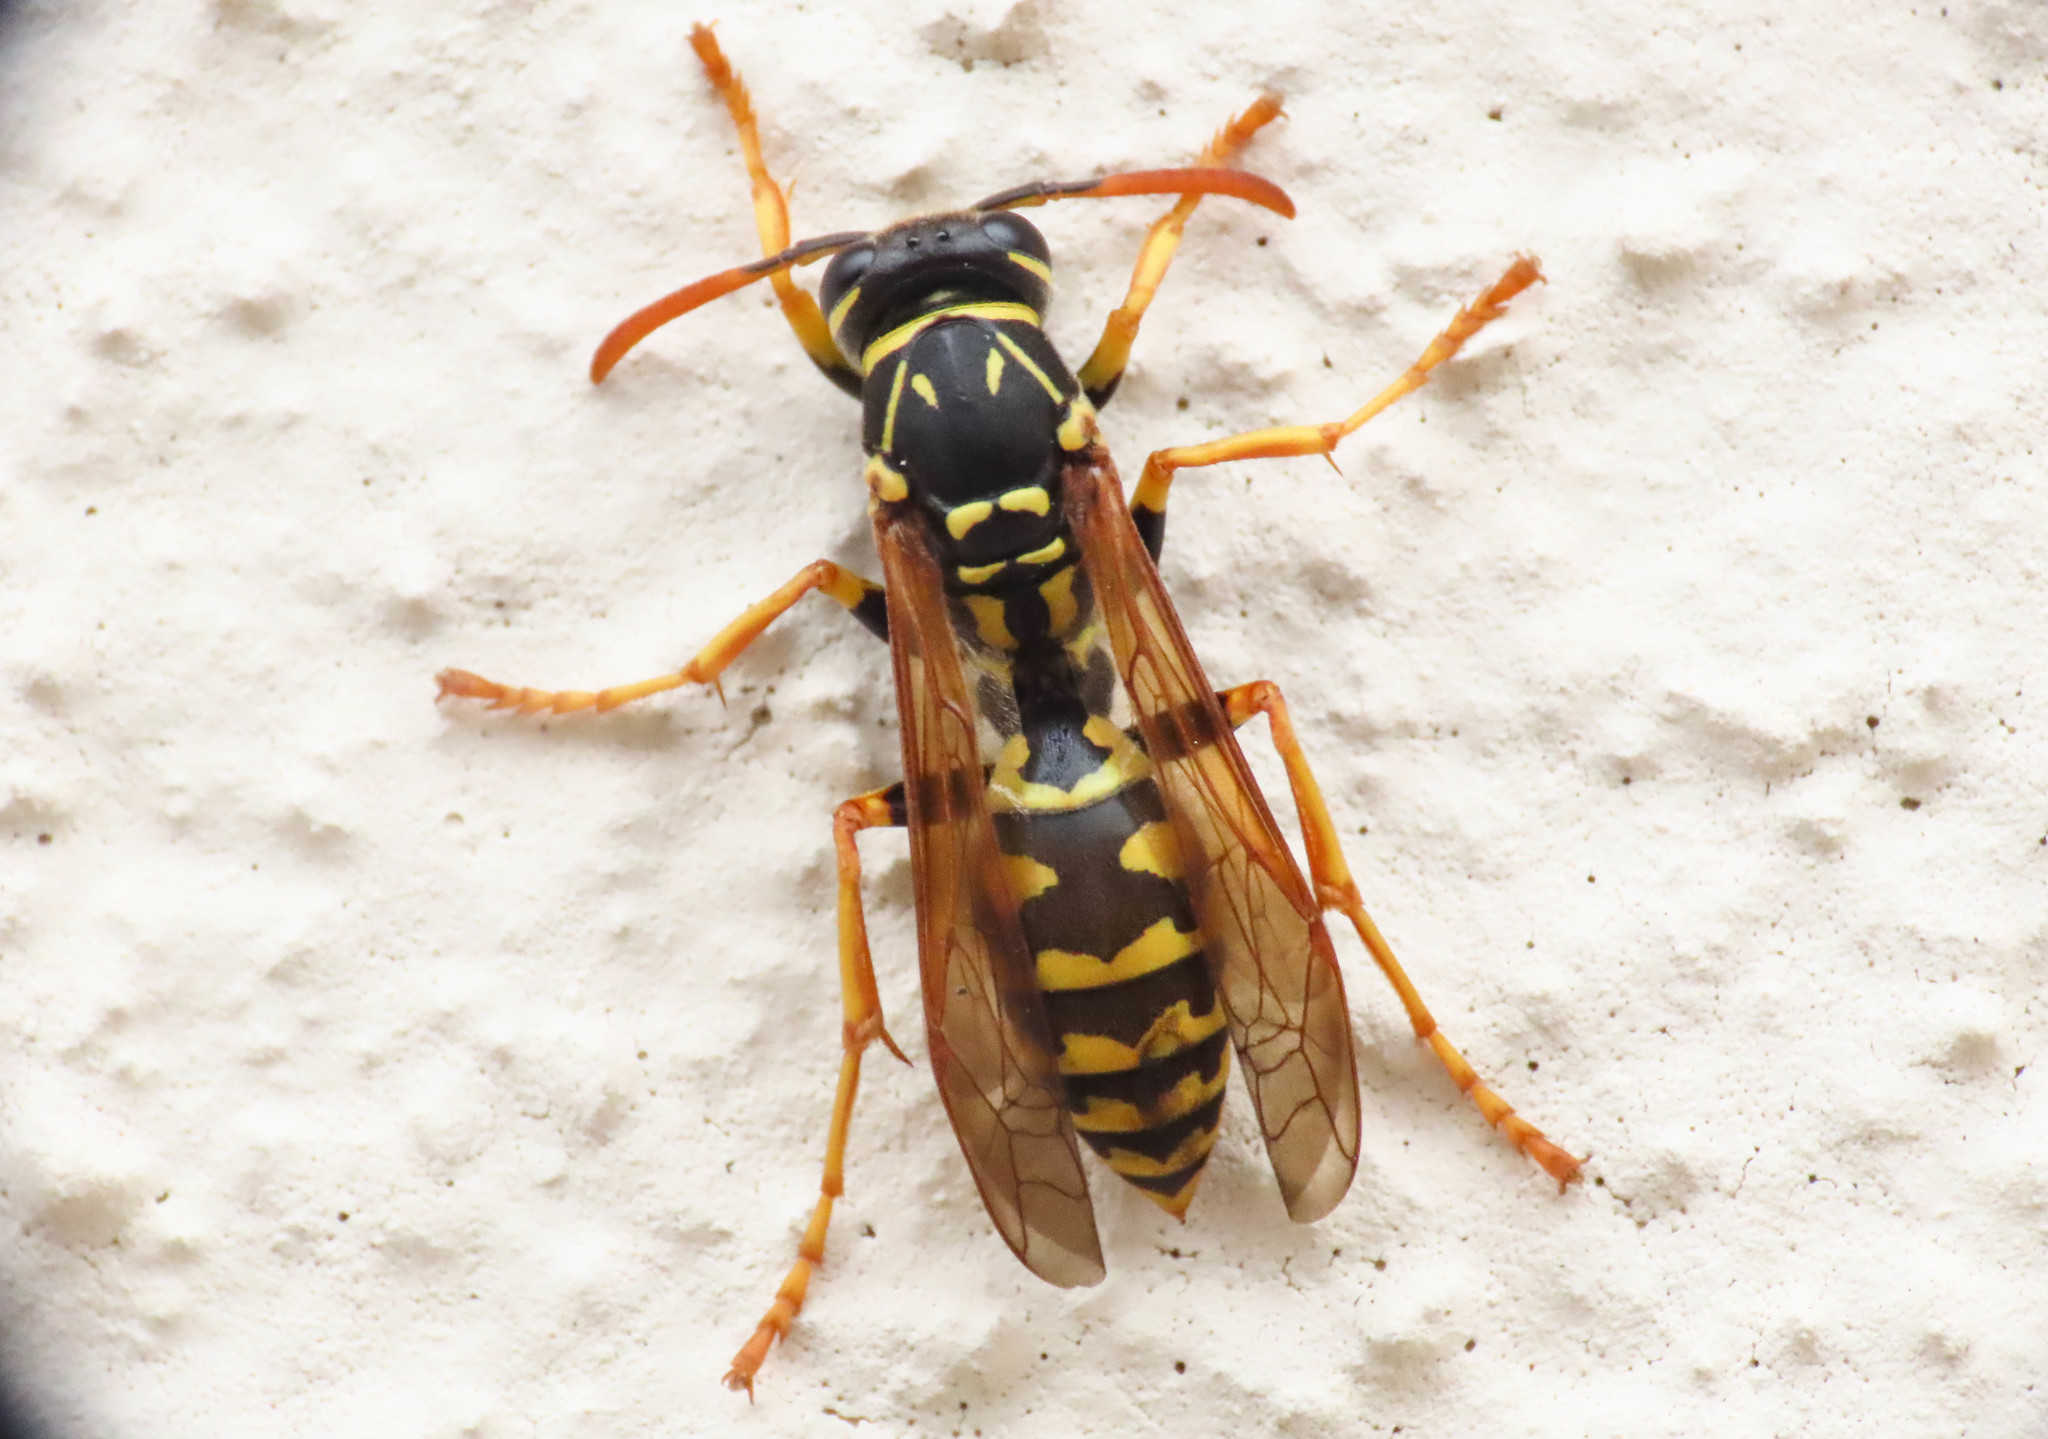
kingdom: Animalia
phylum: Arthropoda
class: Insecta
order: Hymenoptera
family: Eumenidae
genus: Polistes
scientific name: Polistes associus
